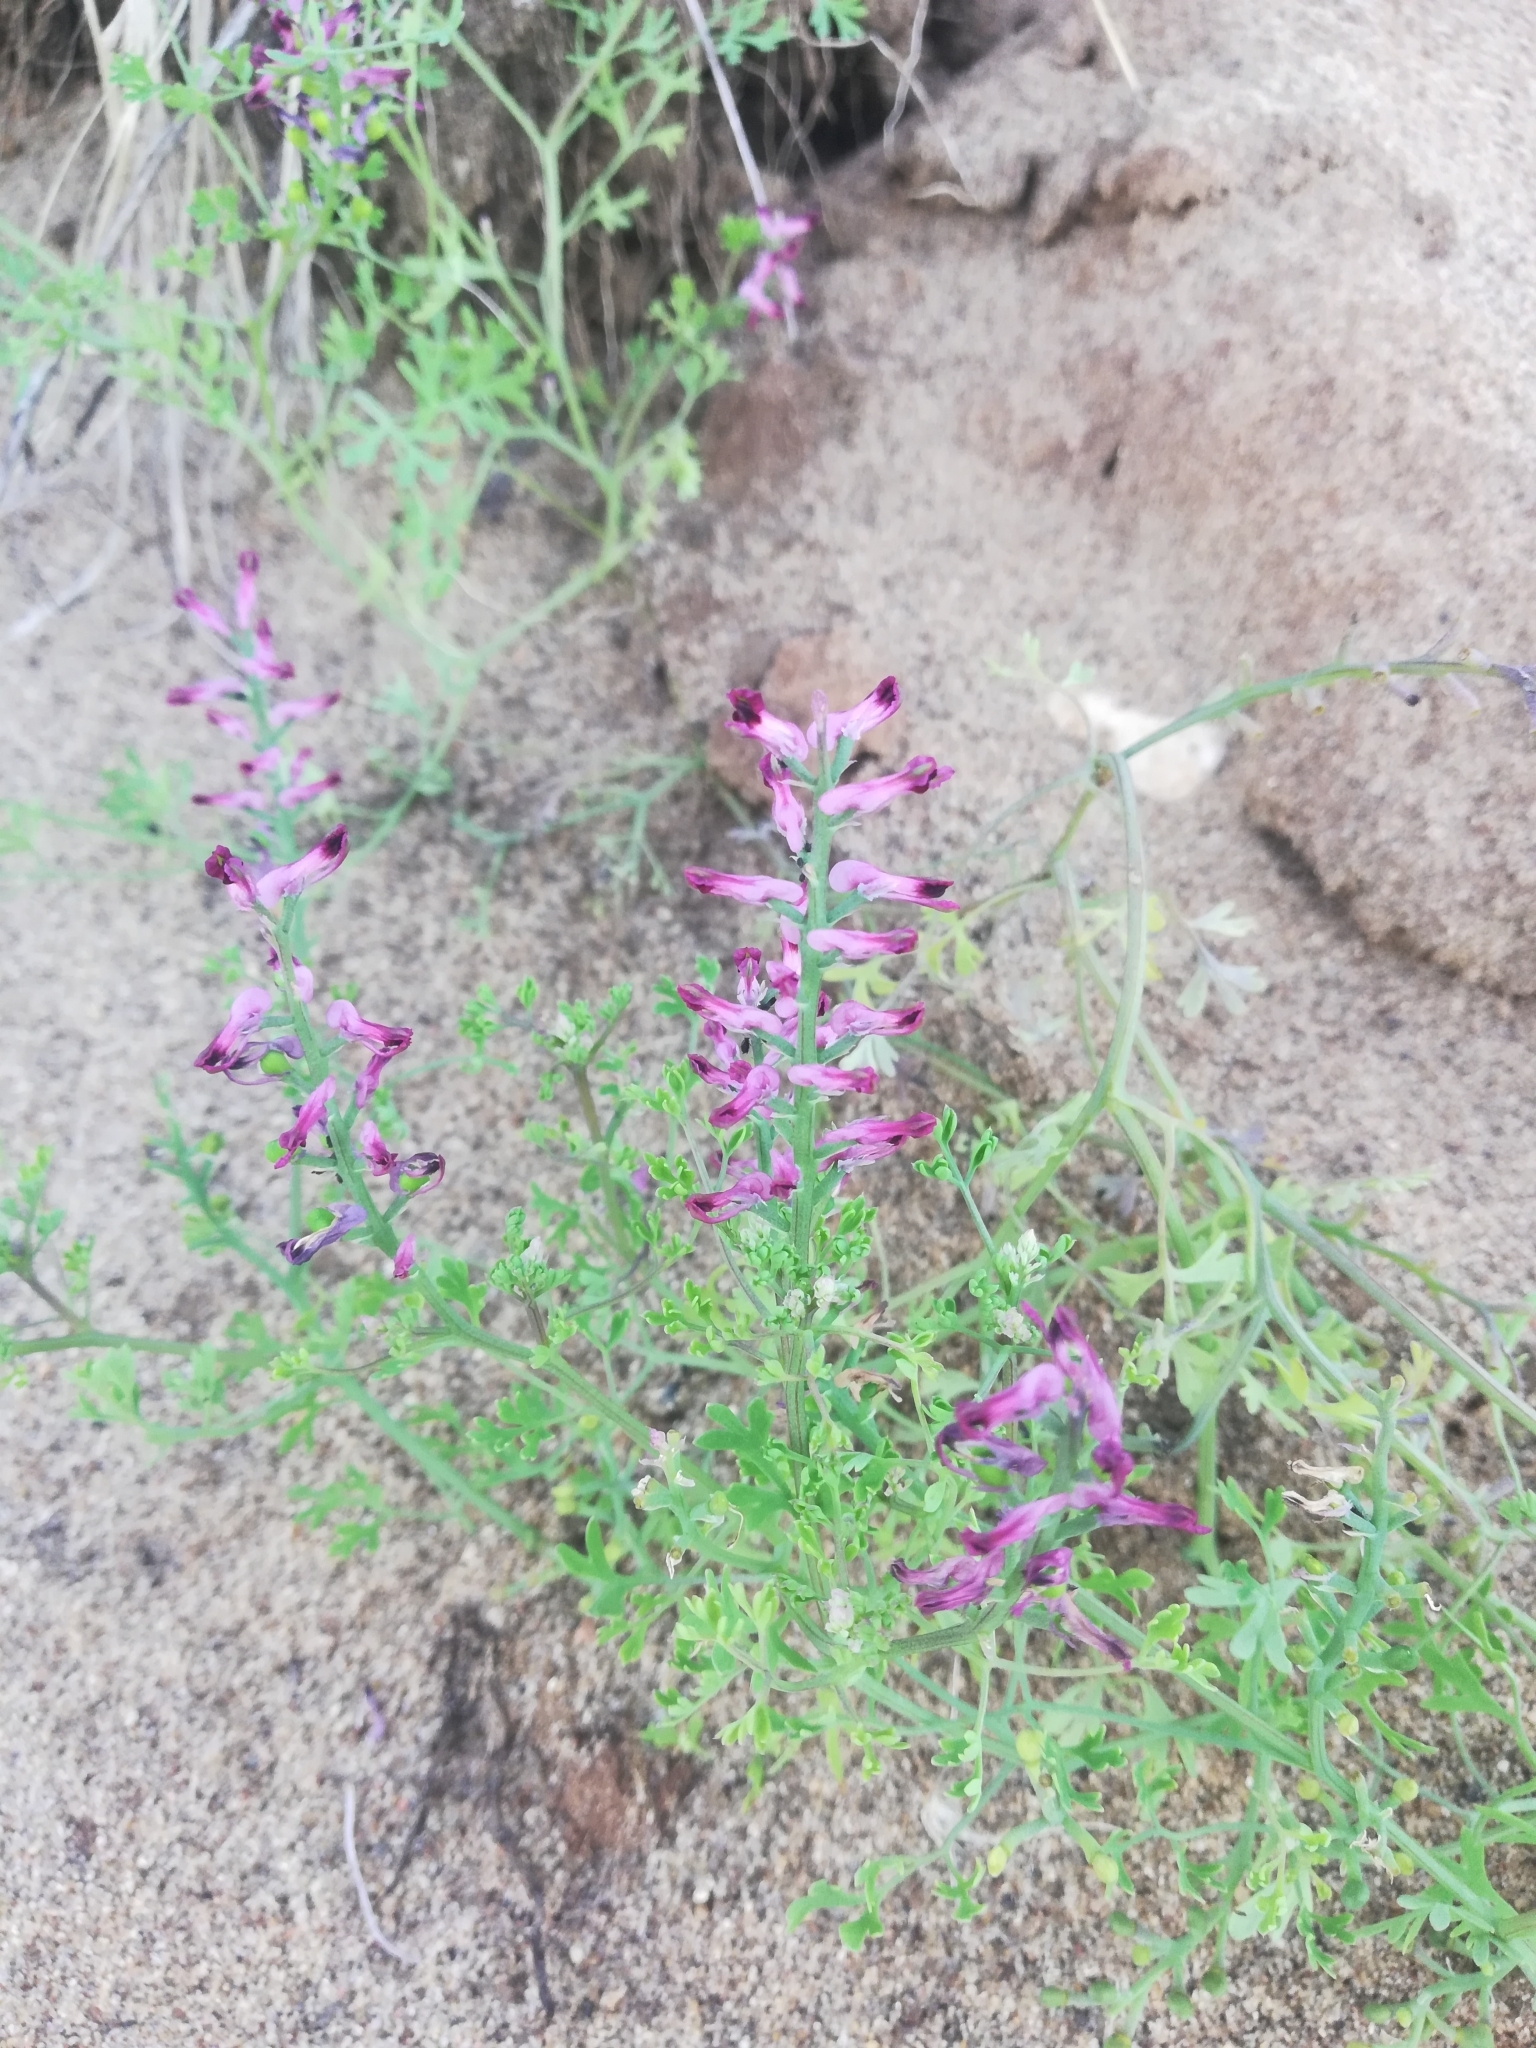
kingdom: Plantae
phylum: Tracheophyta
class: Magnoliopsida
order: Ranunculales
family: Papaveraceae
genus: Fumaria
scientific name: Fumaria officinalis
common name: Common fumitory
